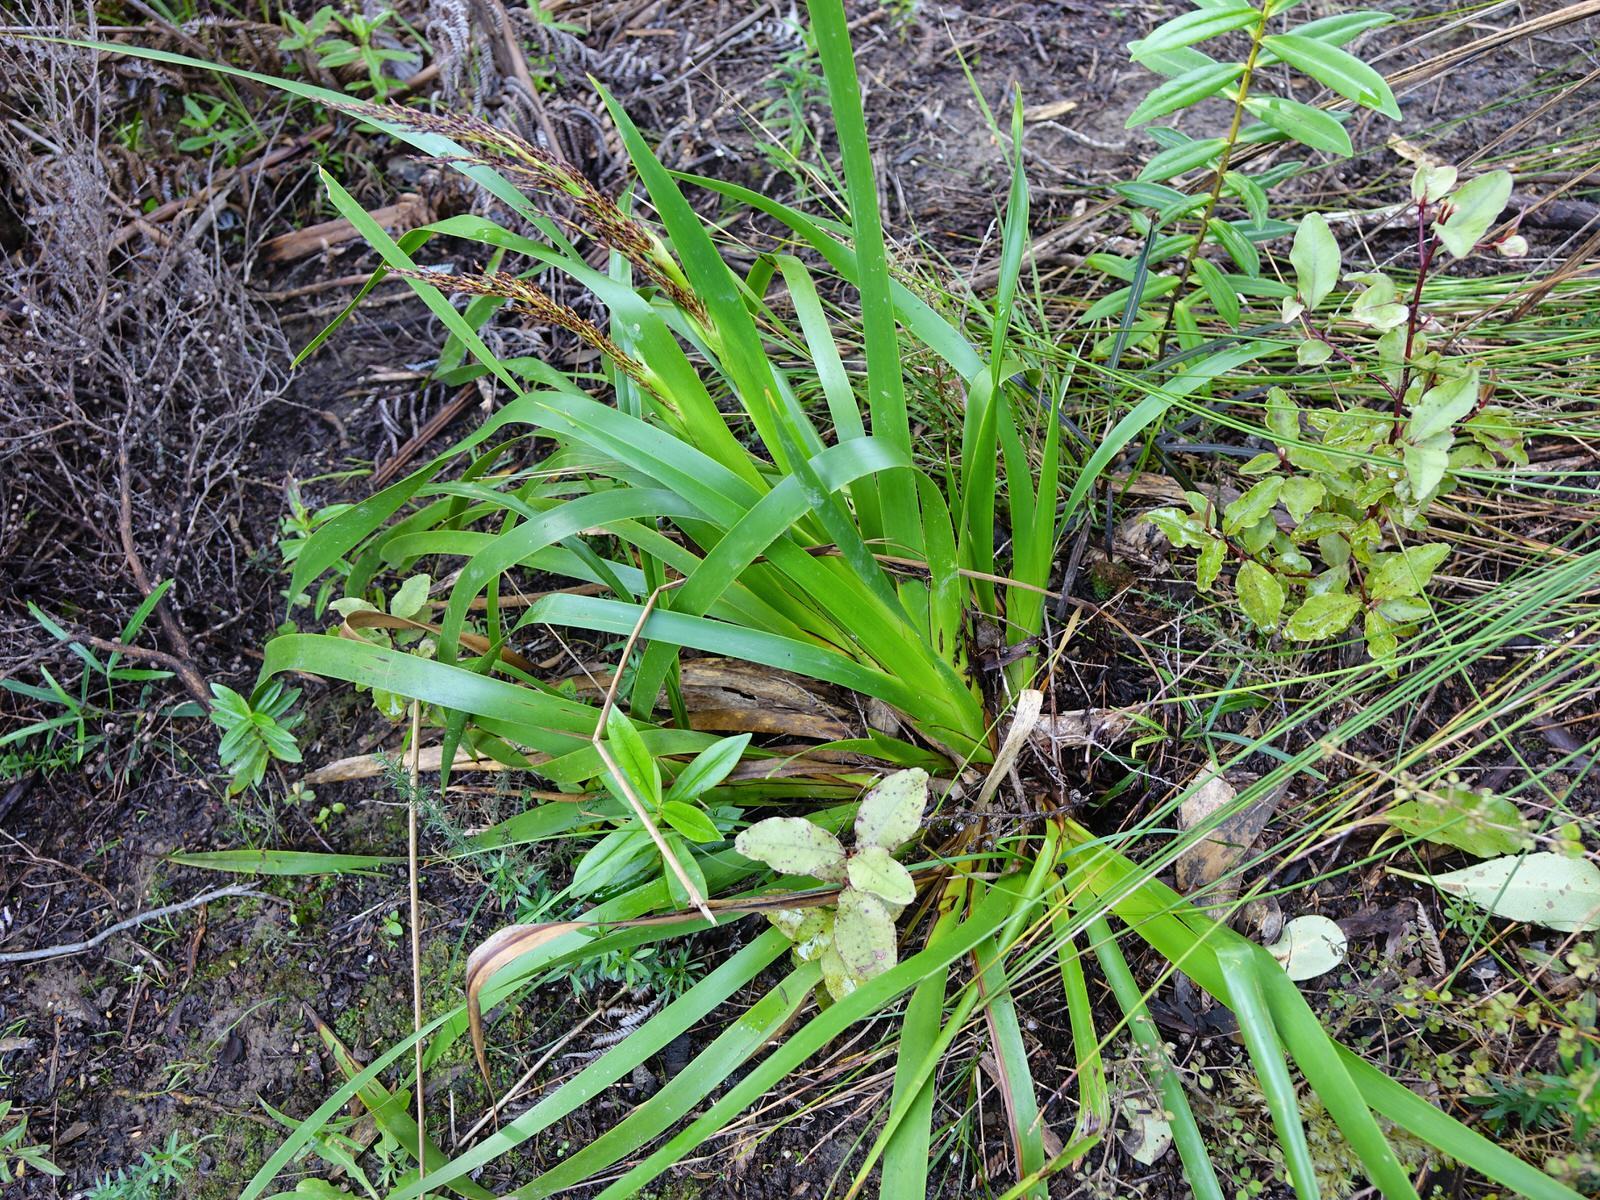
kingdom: Plantae
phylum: Tracheophyta
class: Liliopsida
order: Poales
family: Cyperaceae
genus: Machaerina
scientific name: Machaerina sinclairii
